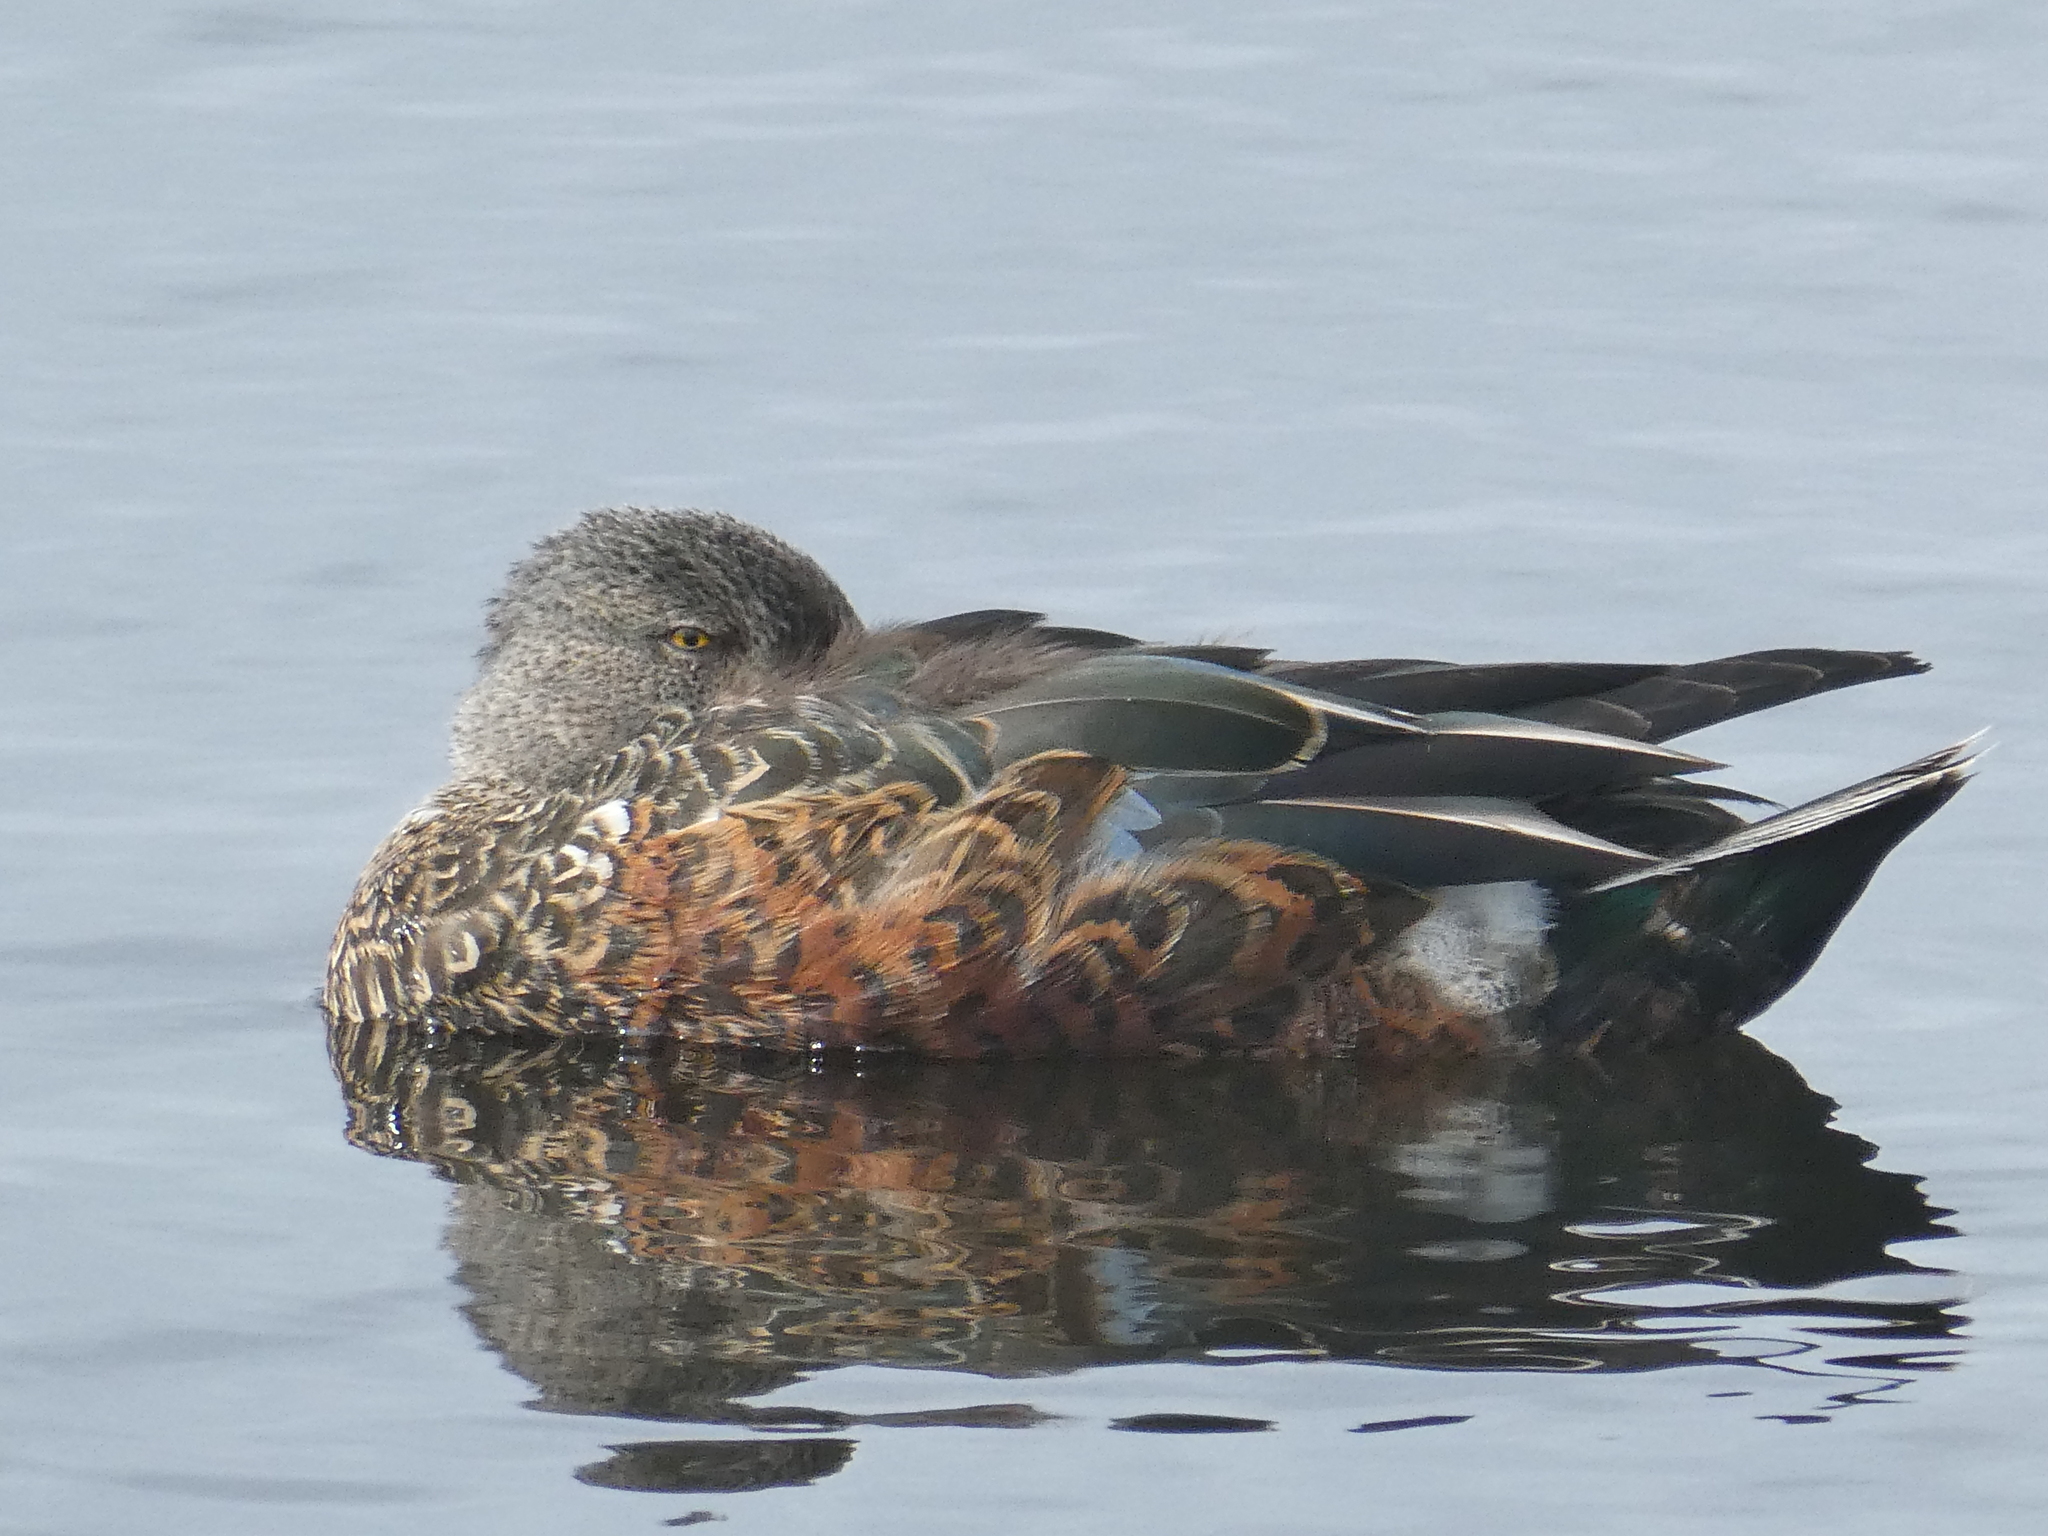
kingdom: Animalia
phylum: Chordata
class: Aves
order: Anseriformes
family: Anatidae
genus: Spatula
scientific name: Spatula rhynchotis
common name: Australian shoveler
